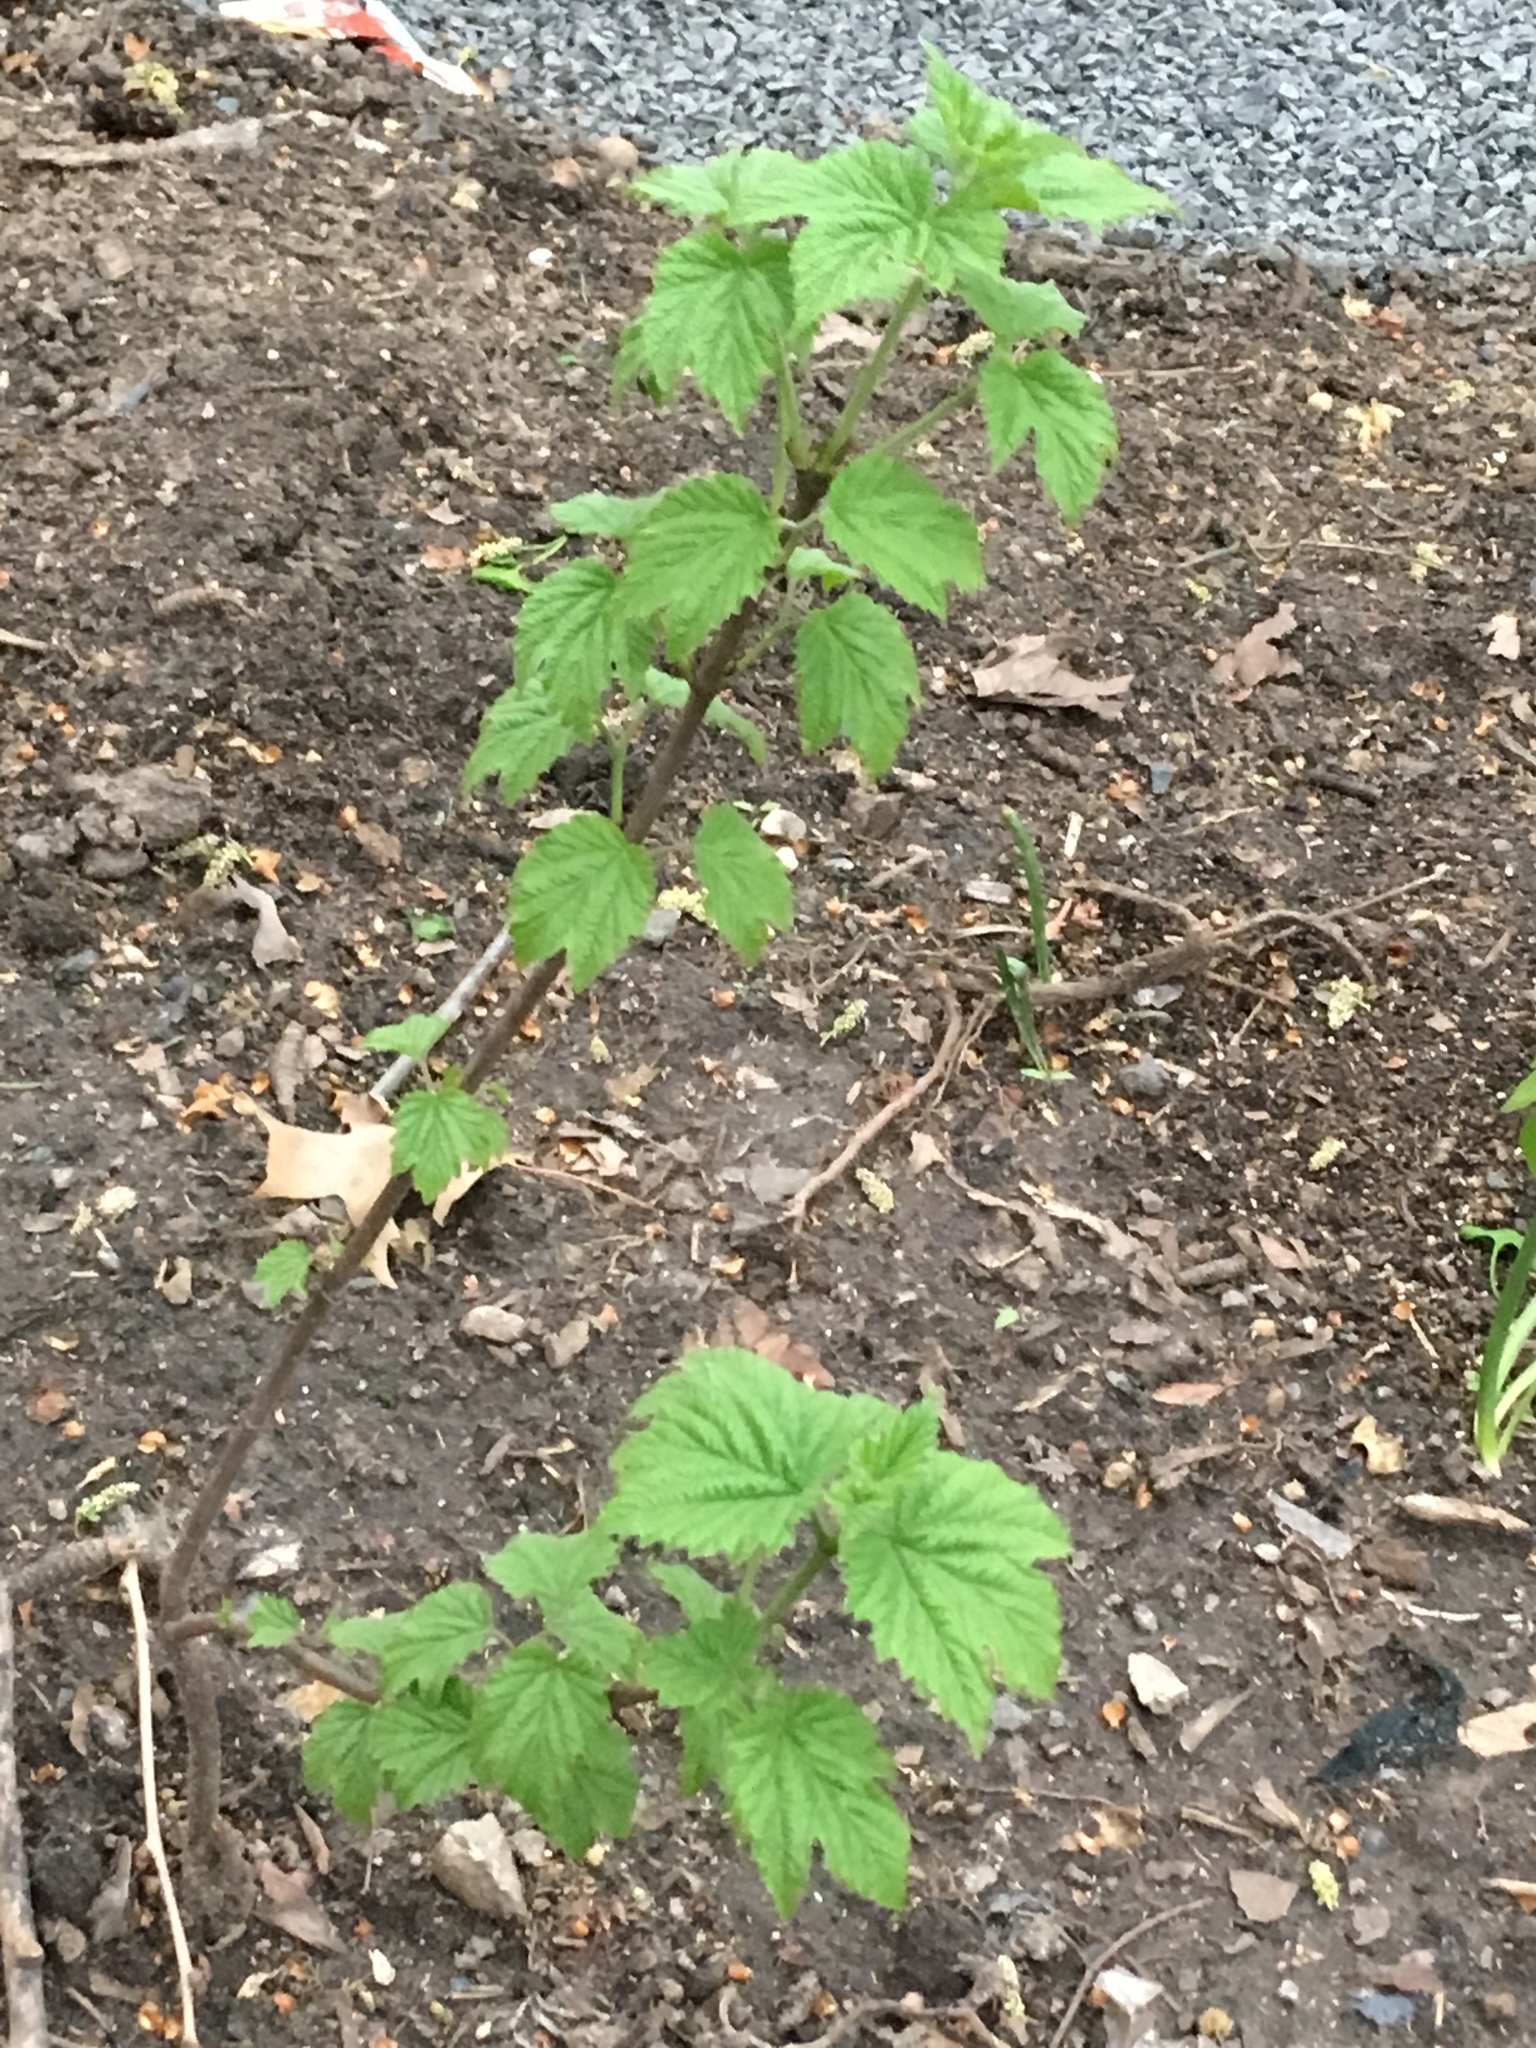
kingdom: Plantae
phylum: Tracheophyta
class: Magnoliopsida
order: Dipsacales
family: Viburnaceae
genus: Viburnum
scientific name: Viburnum acerifolium
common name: Dockmackie
